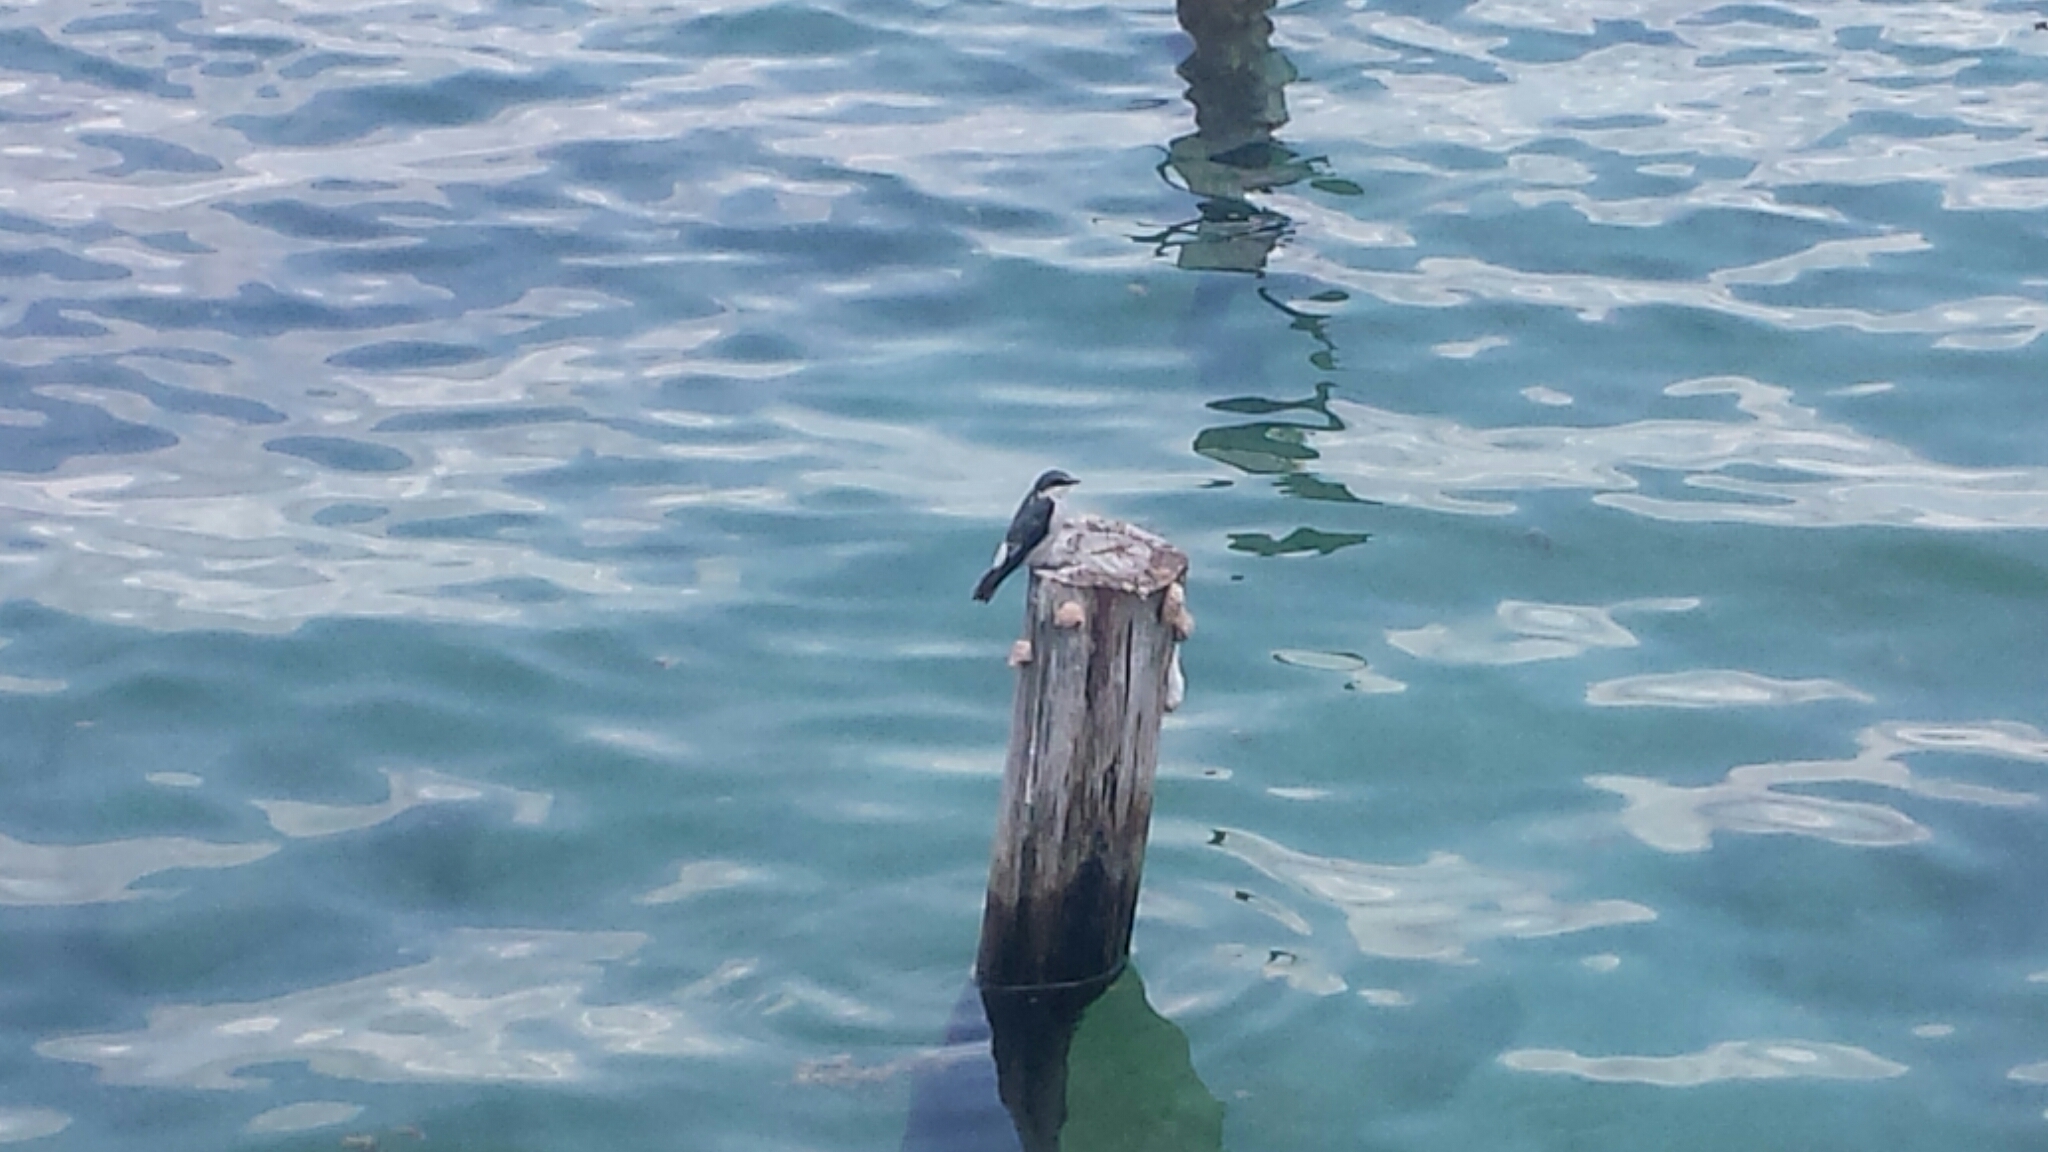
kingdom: Animalia
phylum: Chordata
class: Aves
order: Passeriformes
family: Hirundinidae
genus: Tachycineta
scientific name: Tachycineta albilinea
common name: Mangrove swallow
